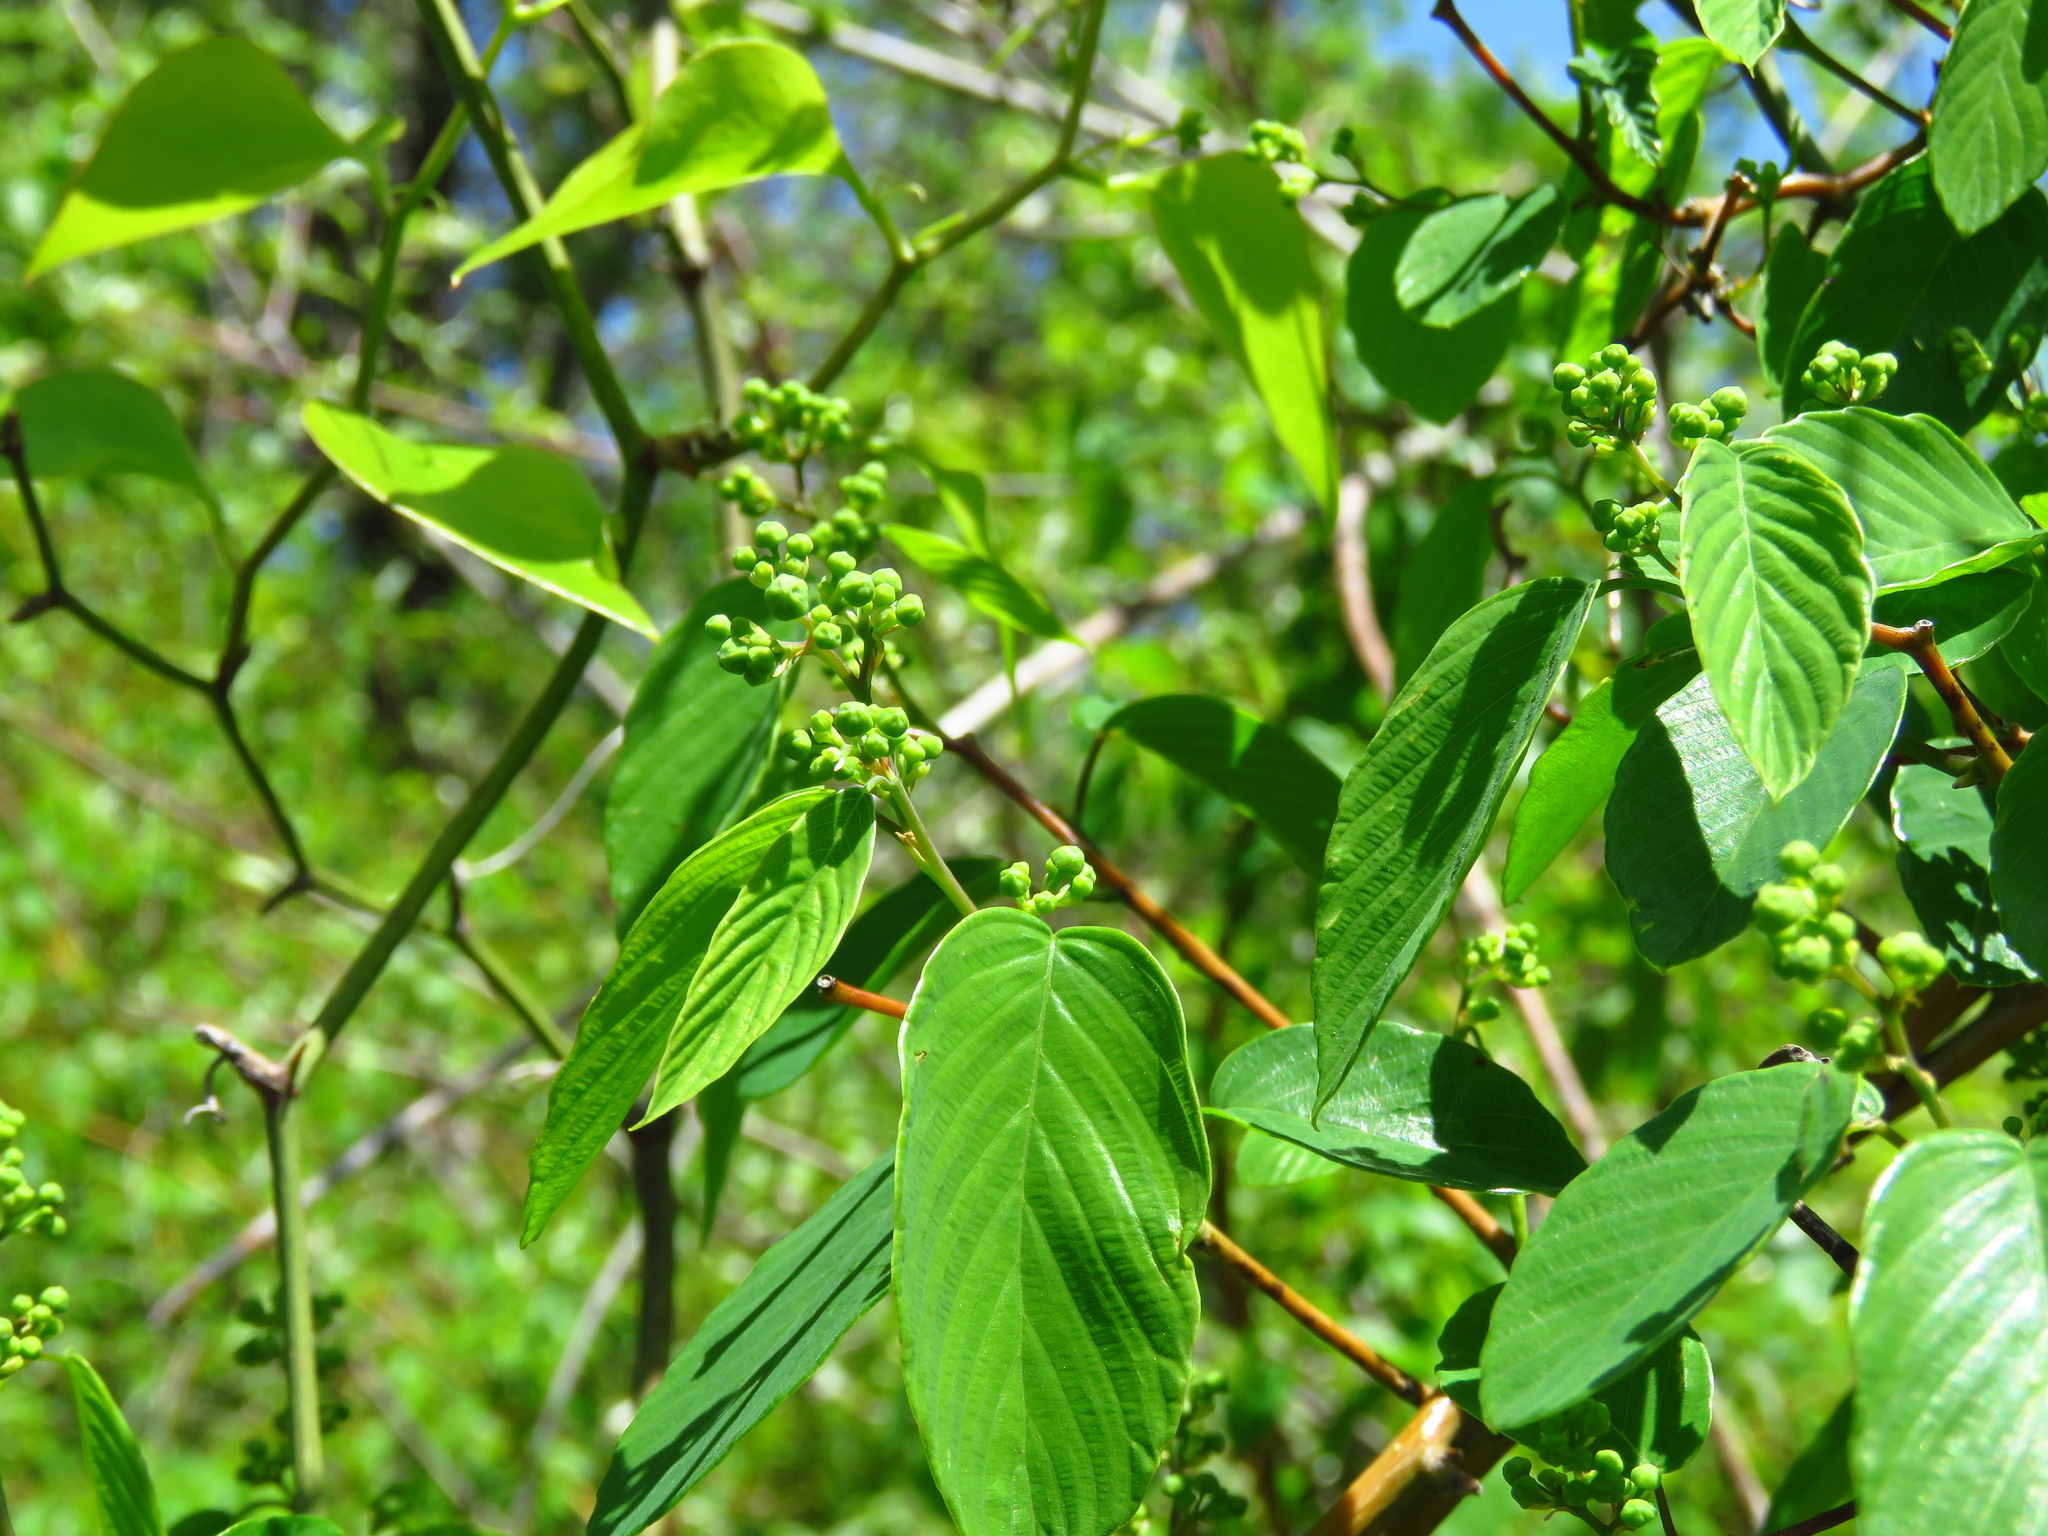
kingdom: Plantae
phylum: Tracheophyta
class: Magnoliopsida
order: Rosales
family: Rhamnaceae
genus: Berchemia
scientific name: Berchemia scandens
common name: Supplejack
